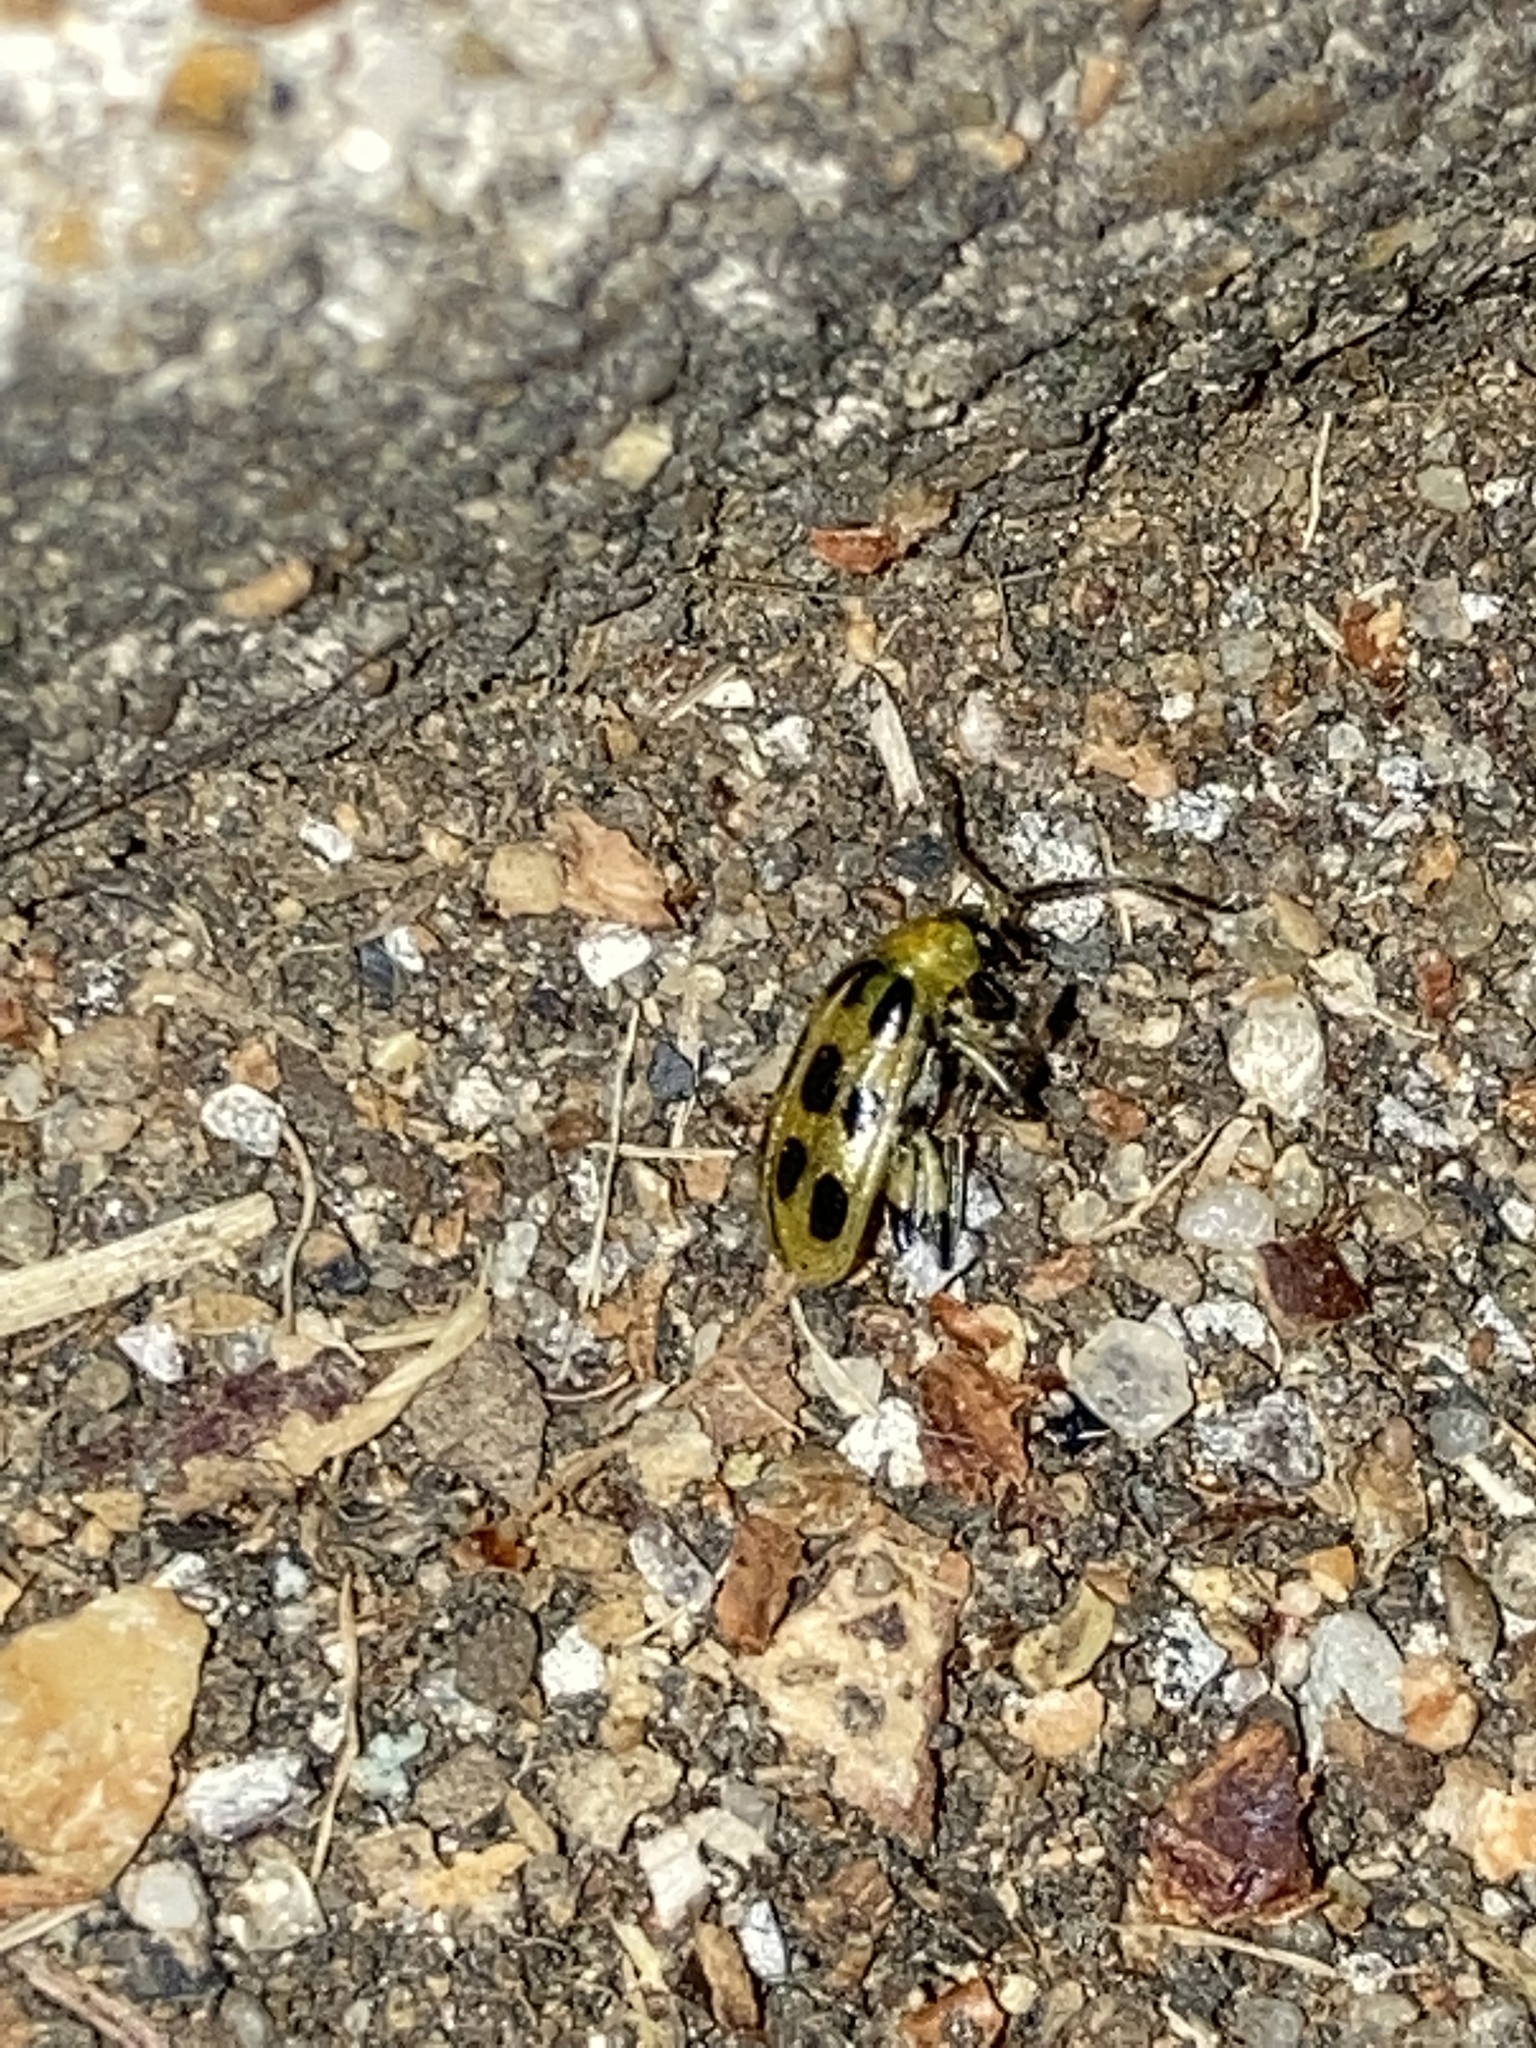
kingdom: Animalia
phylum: Arthropoda
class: Insecta
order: Coleoptera
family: Chrysomelidae
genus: Diabrotica
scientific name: Diabrotica undecimpunctata
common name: Spotted cucumber beetle
